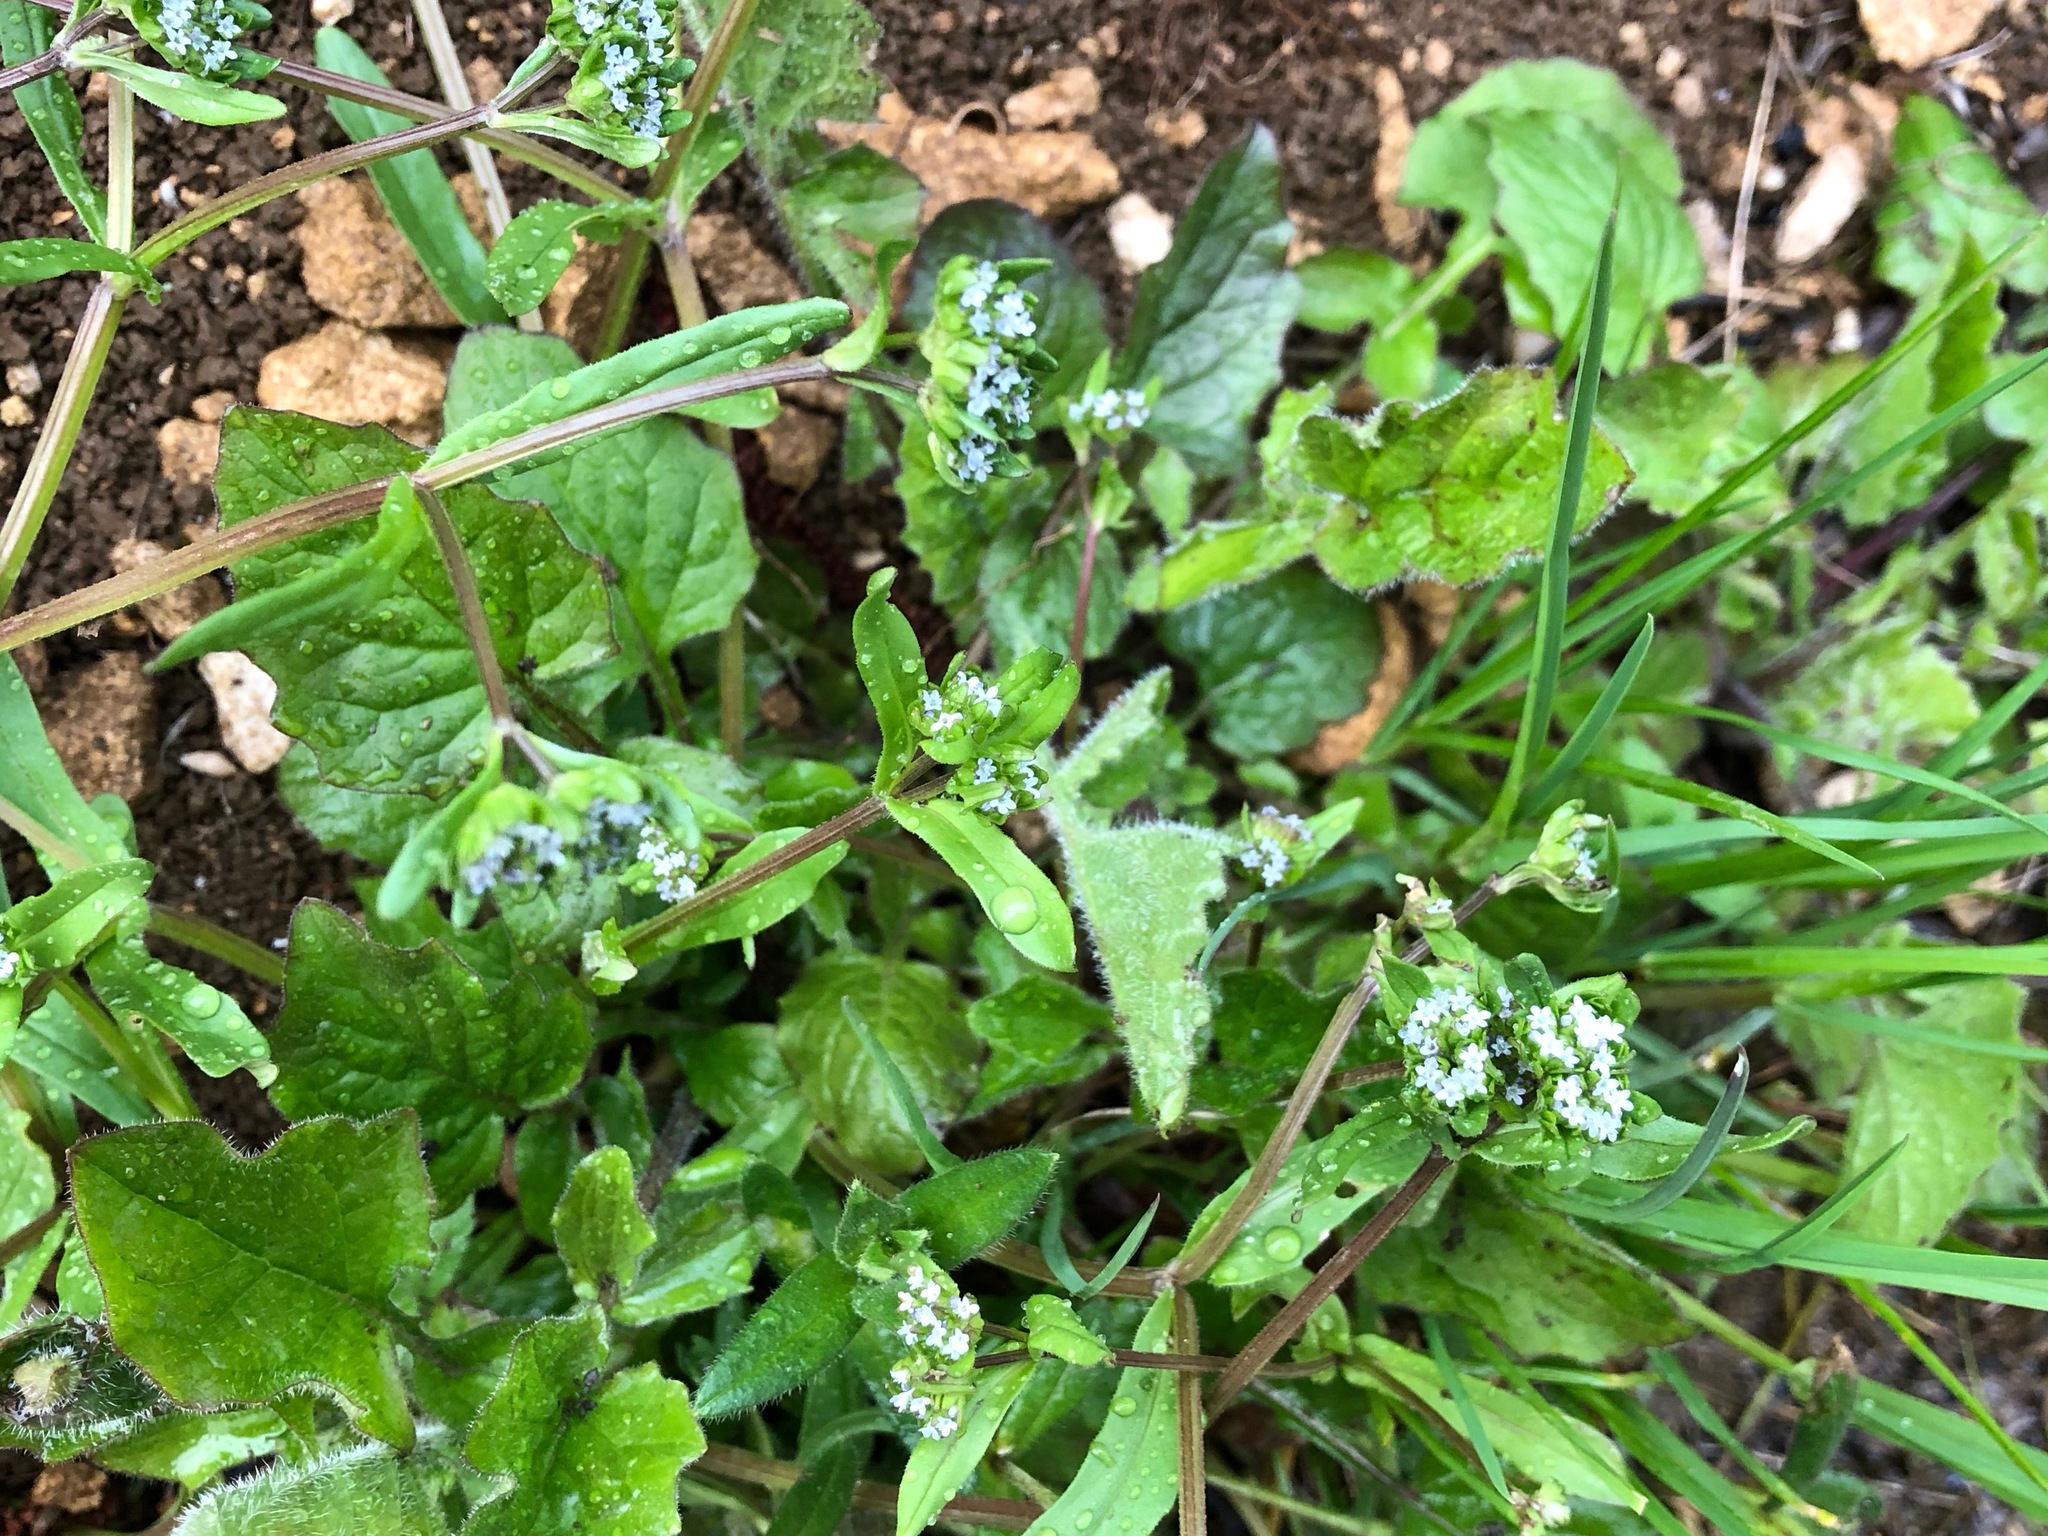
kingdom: Plantae
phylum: Tracheophyta
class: Magnoliopsida
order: Dipsacales
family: Caprifoliaceae
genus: Valerianella
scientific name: Valerianella locusta
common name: Common cornsalad
